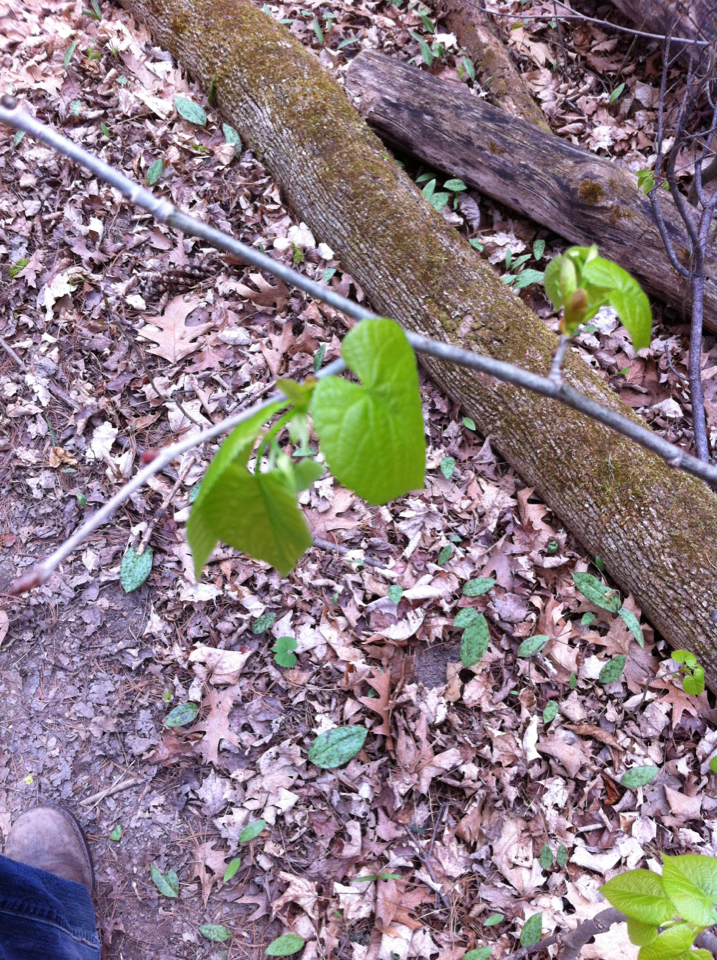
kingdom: Plantae
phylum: Tracheophyta
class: Magnoliopsida
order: Malvales
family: Malvaceae
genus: Tilia
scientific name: Tilia americana
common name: Basswood
